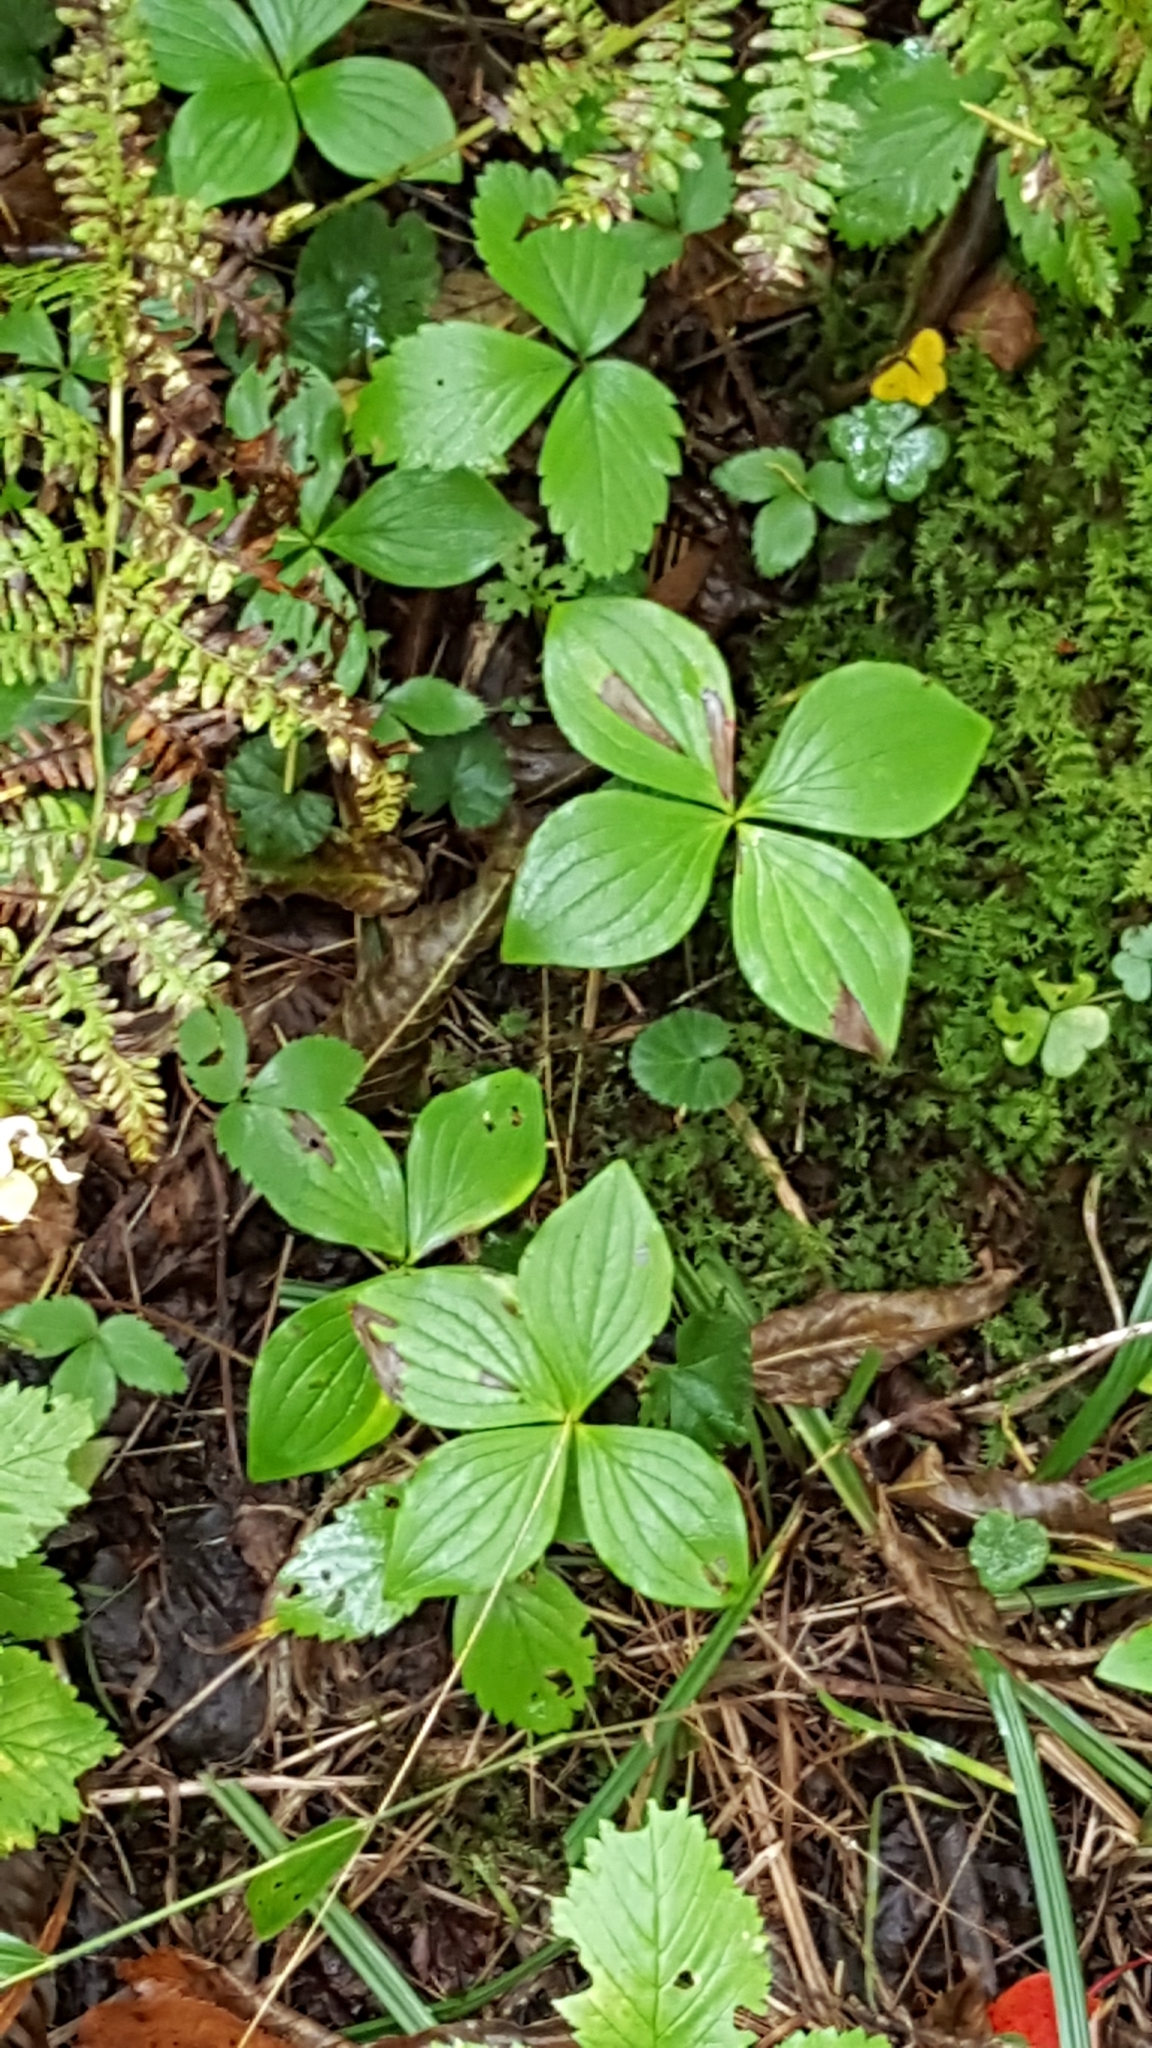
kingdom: Plantae
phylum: Tracheophyta
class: Magnoliopsida
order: Cornales
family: Cornaceae
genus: Cornus
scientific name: Cornus canadensis
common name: Creeping dogwood
